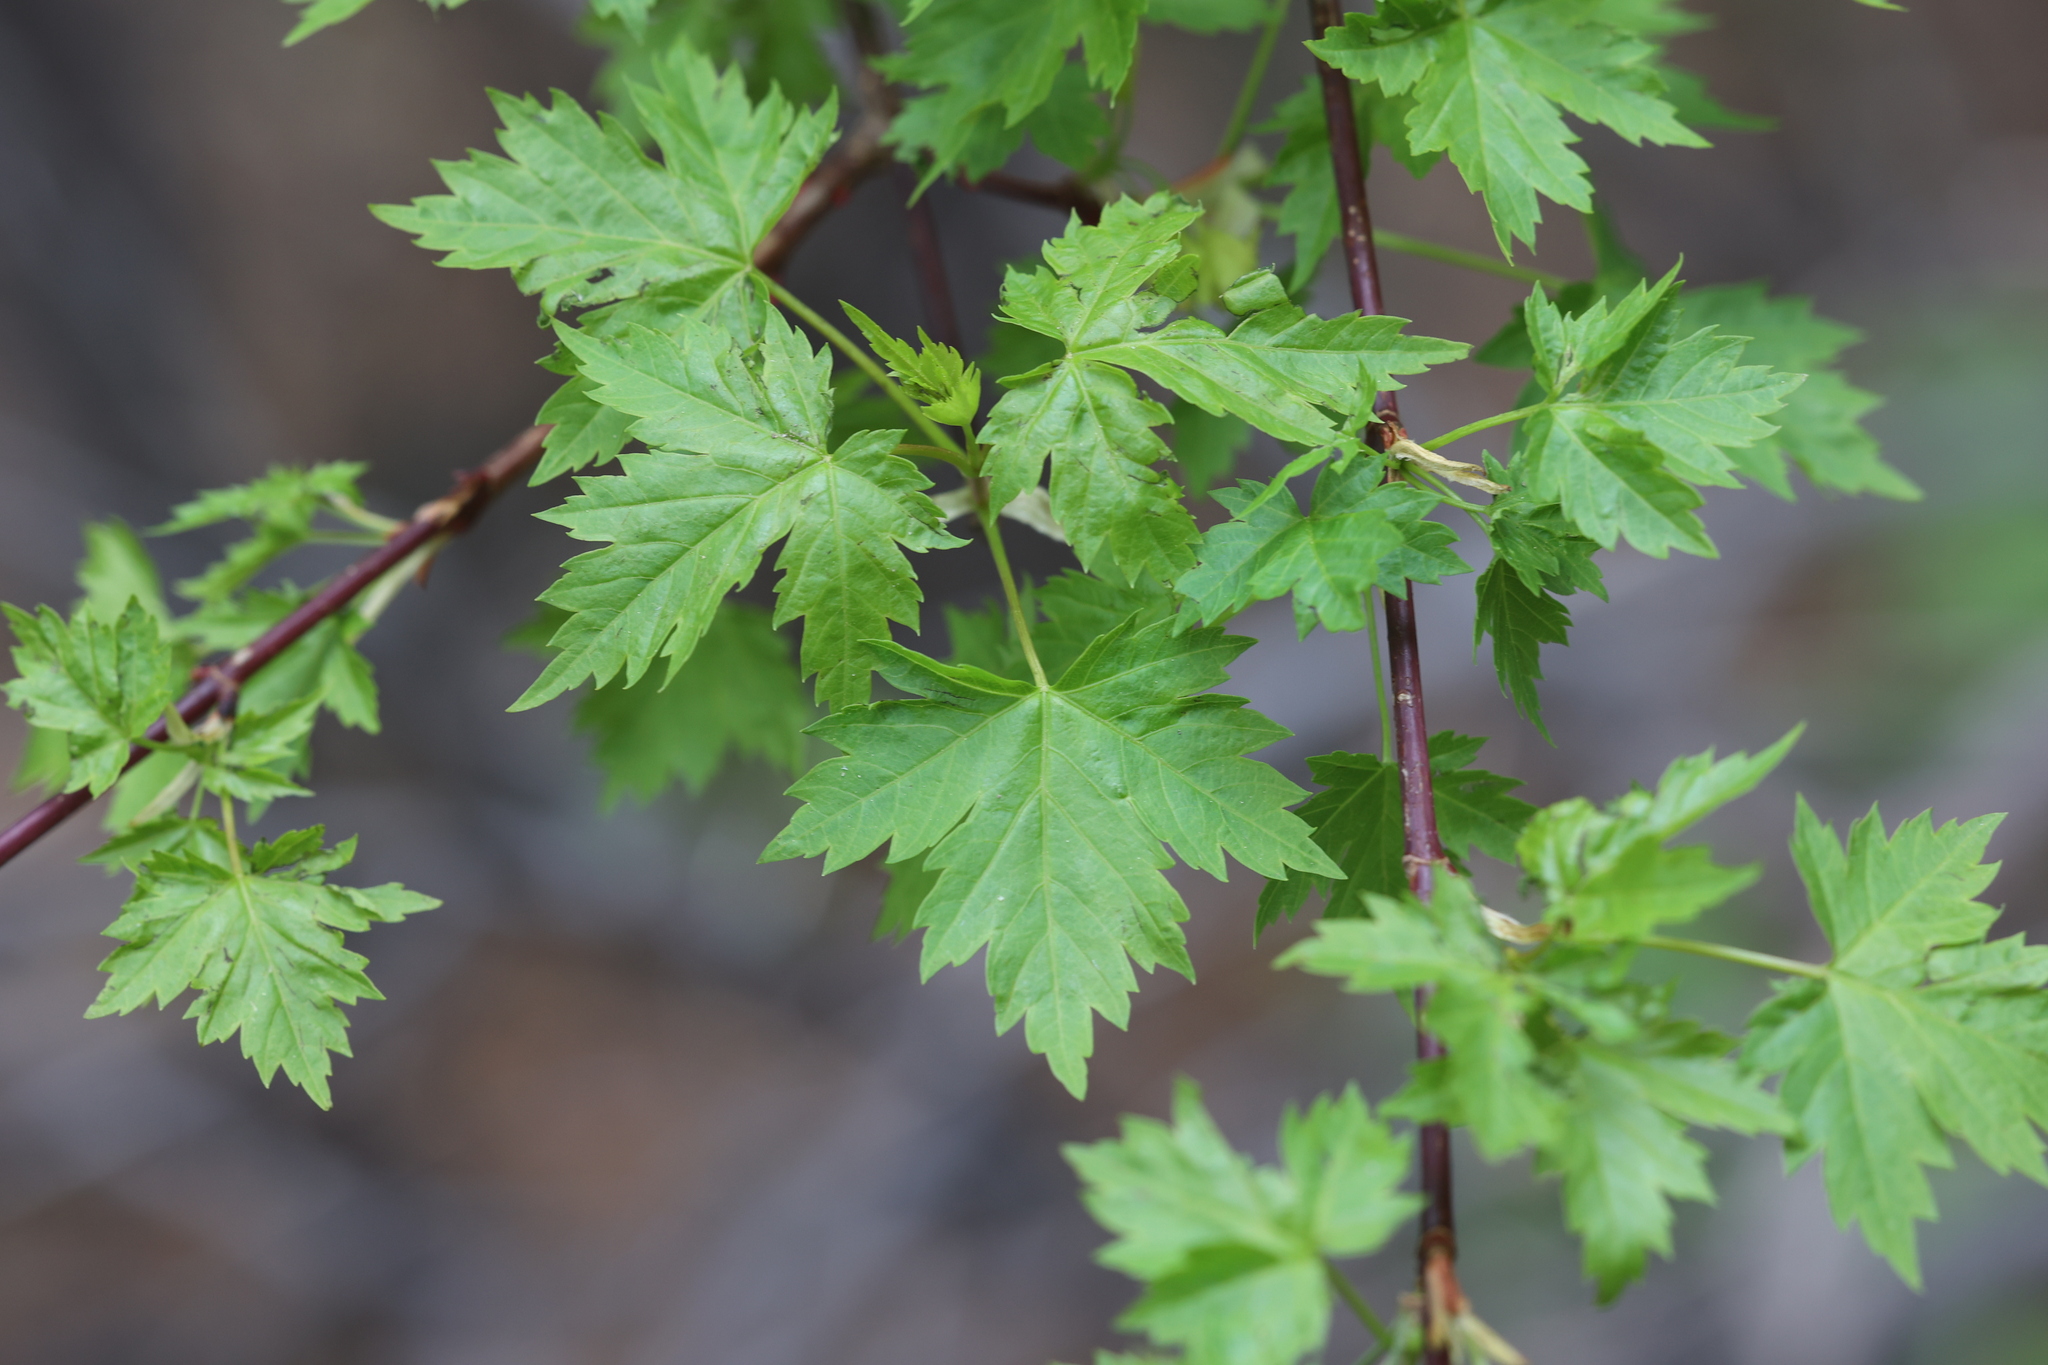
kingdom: Plantae
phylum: Tracheophyta
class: Magnoliopsida
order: Sapindales
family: Sapindaceae
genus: Acer
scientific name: Acer glabrum
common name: Rocky mountain maple
